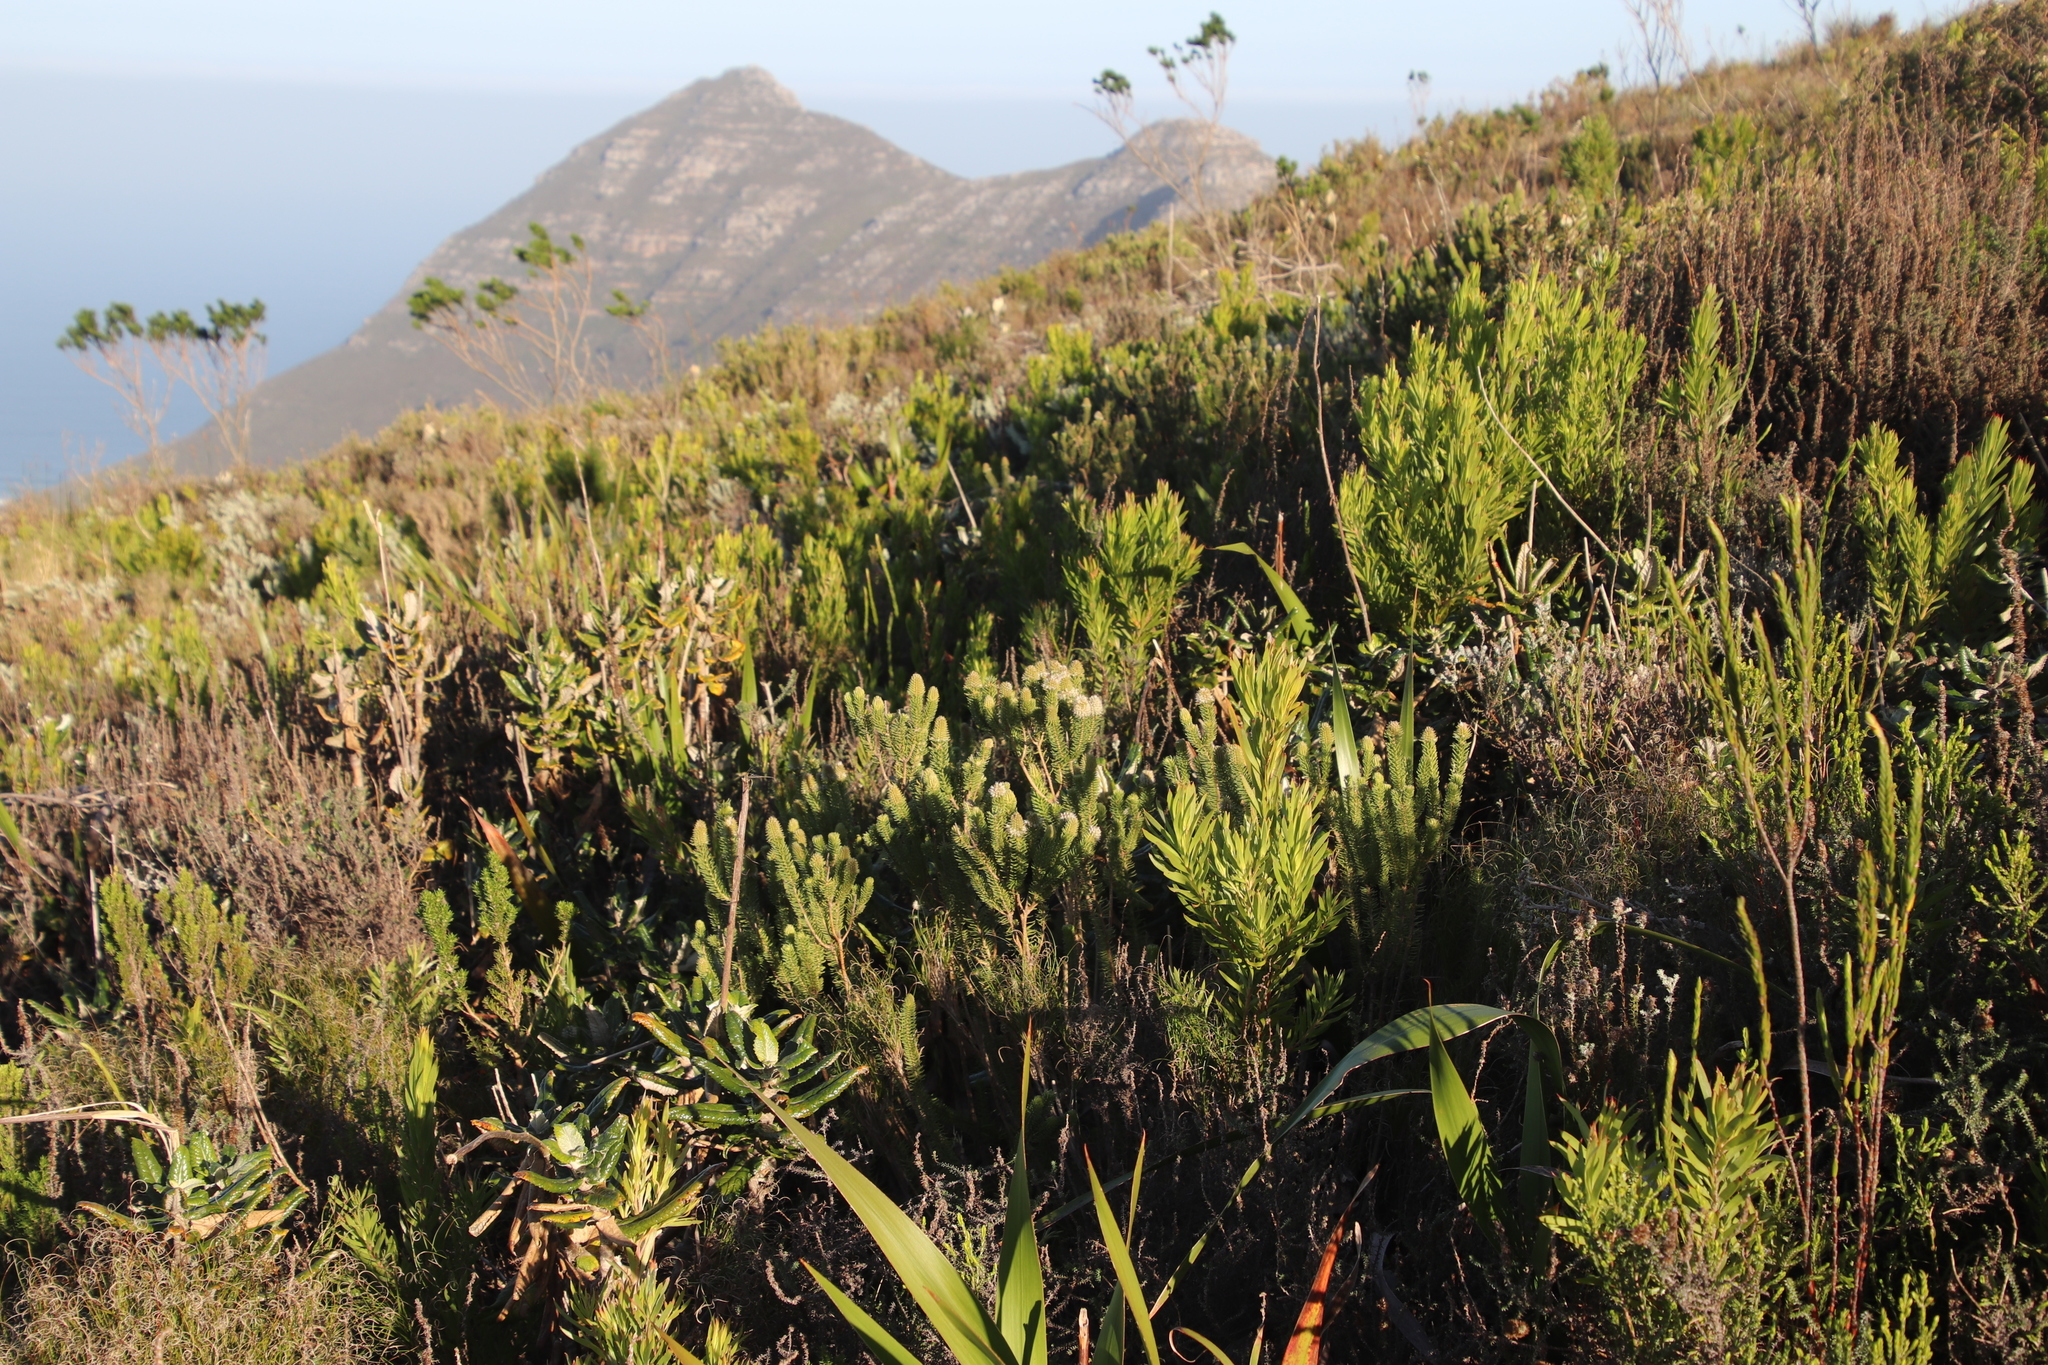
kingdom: Plantae
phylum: Tracheophyta
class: Magnoliopsida
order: Lamiales
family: Stilbaceae
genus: Stilbe
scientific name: Stilbe vestita
